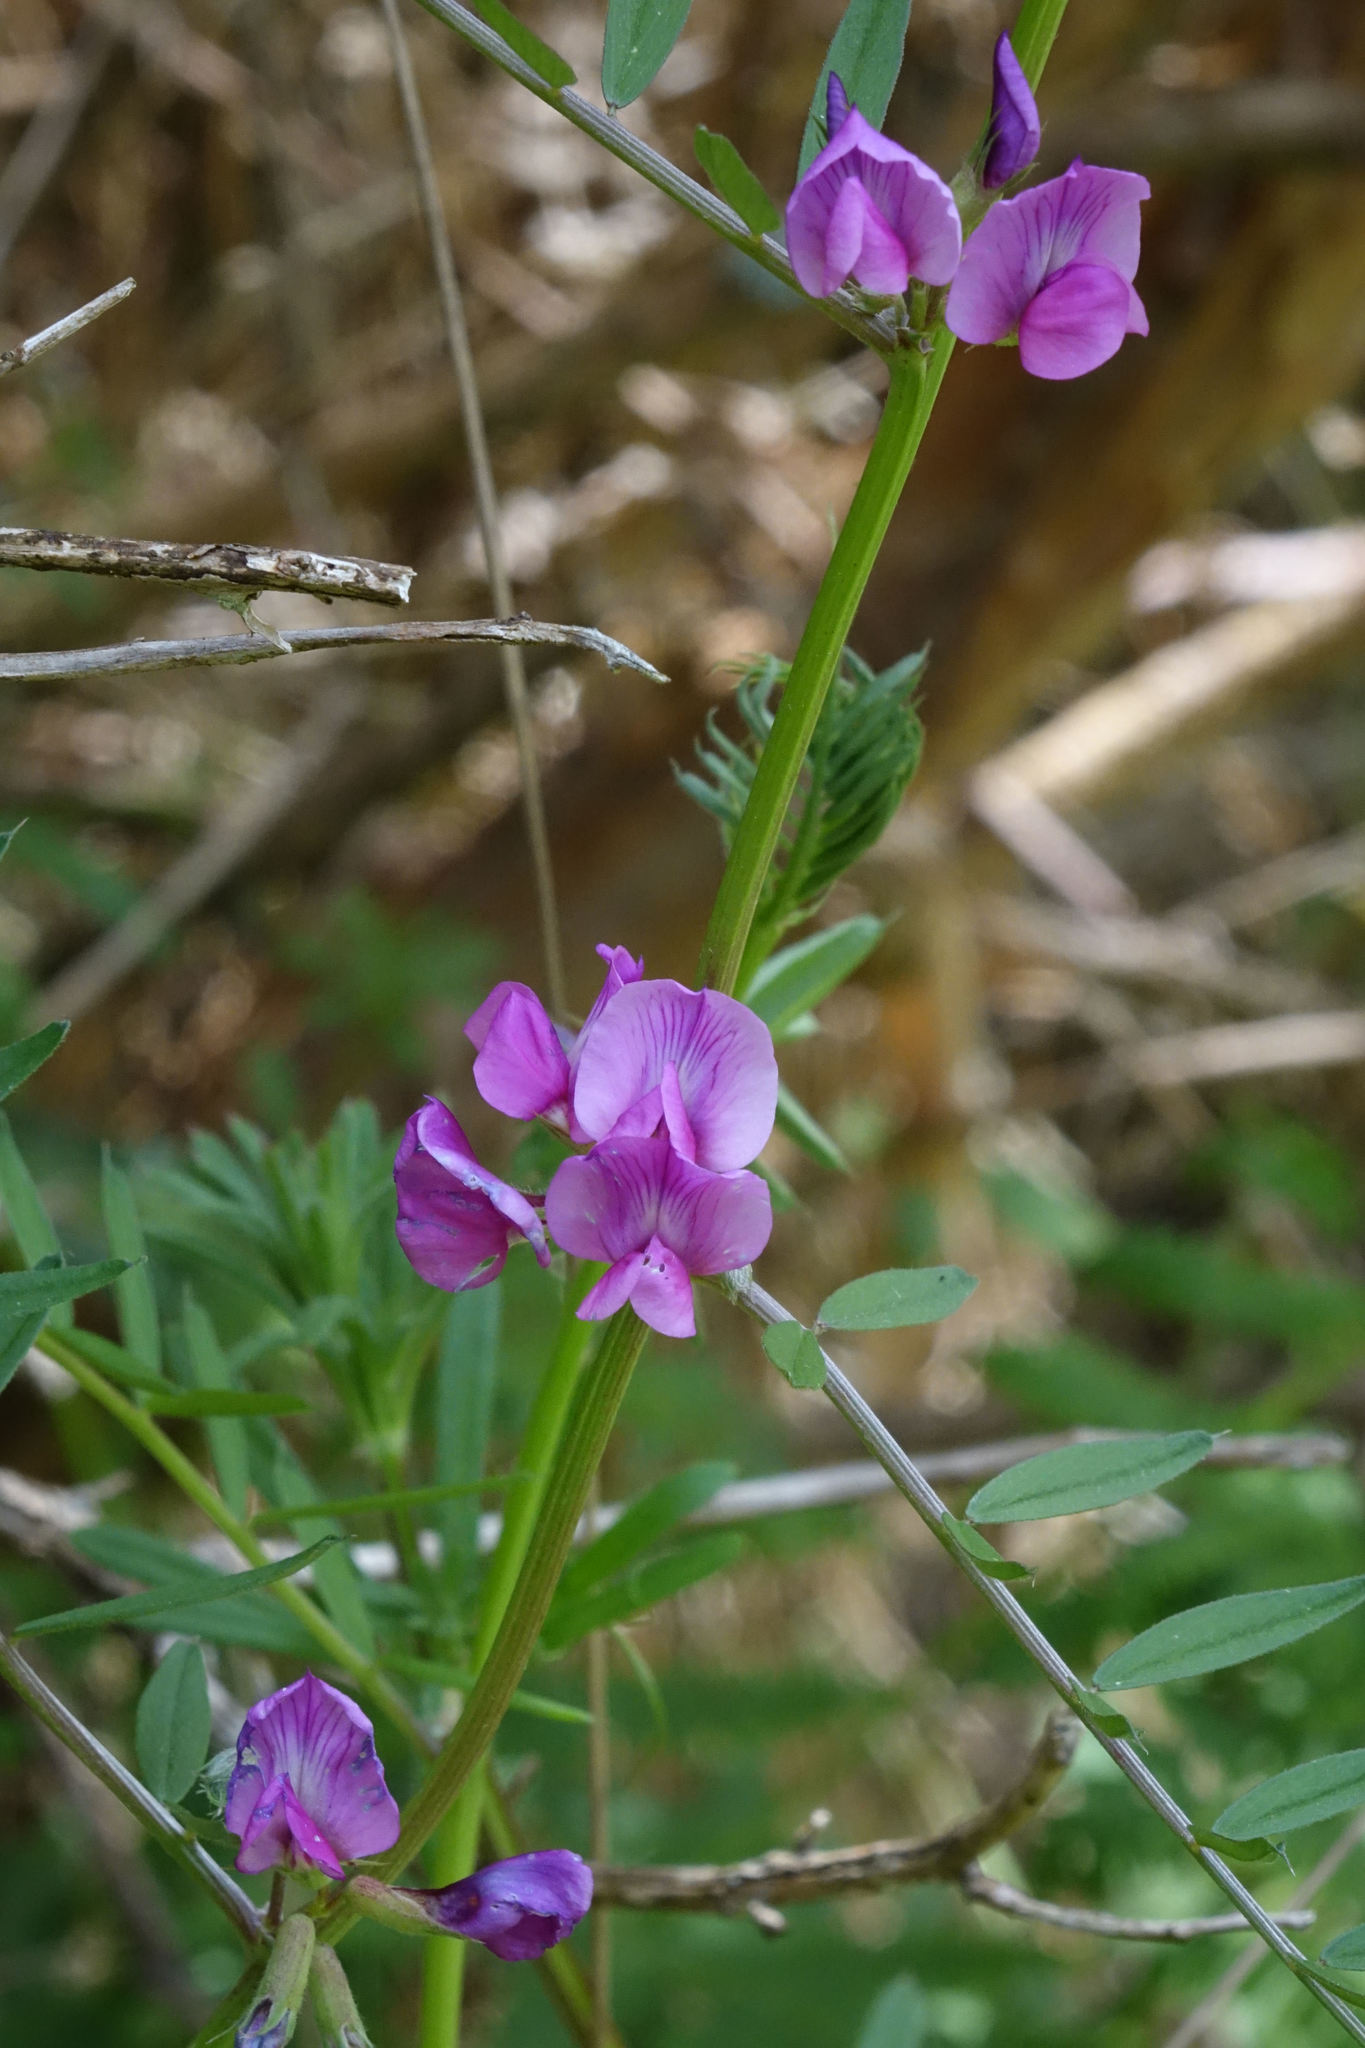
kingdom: Plantae
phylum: Tracheophyta
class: Magnoliopsida
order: Fabales
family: Fabaceae
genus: Vicia
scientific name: Vicia sativa
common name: Garden vetch
